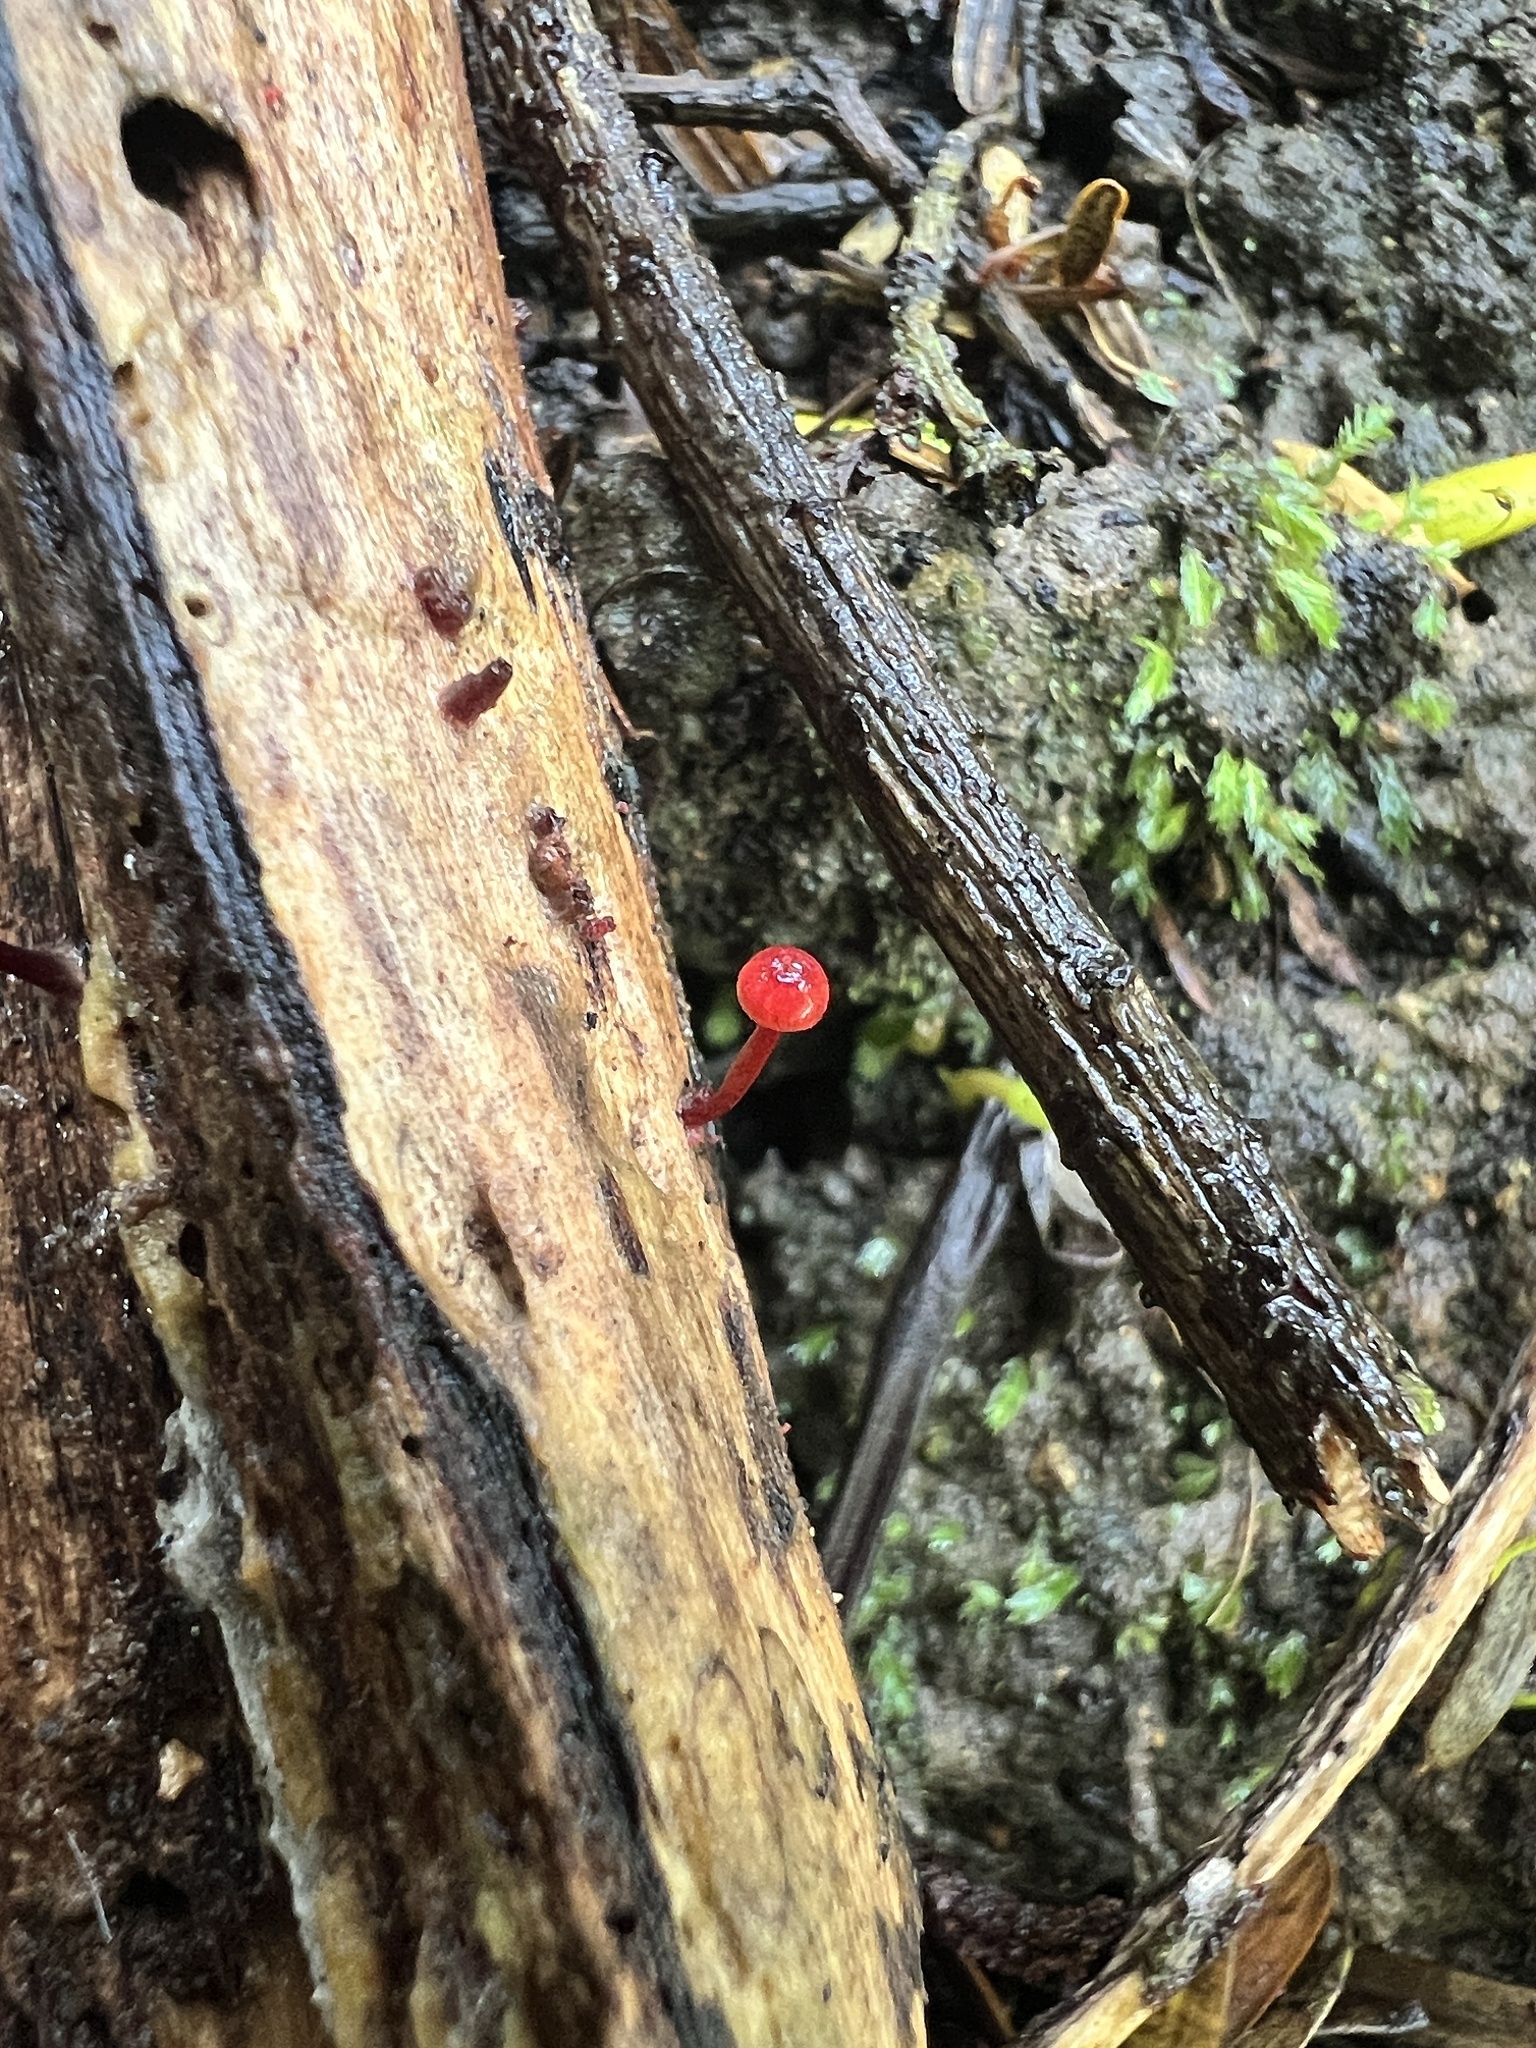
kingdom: Fungi
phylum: Basidiomycota
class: Agaricomycetes
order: Agaricales
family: Mycenaceae
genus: Cruentomycena
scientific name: Cruentomycena viscidocruenta
